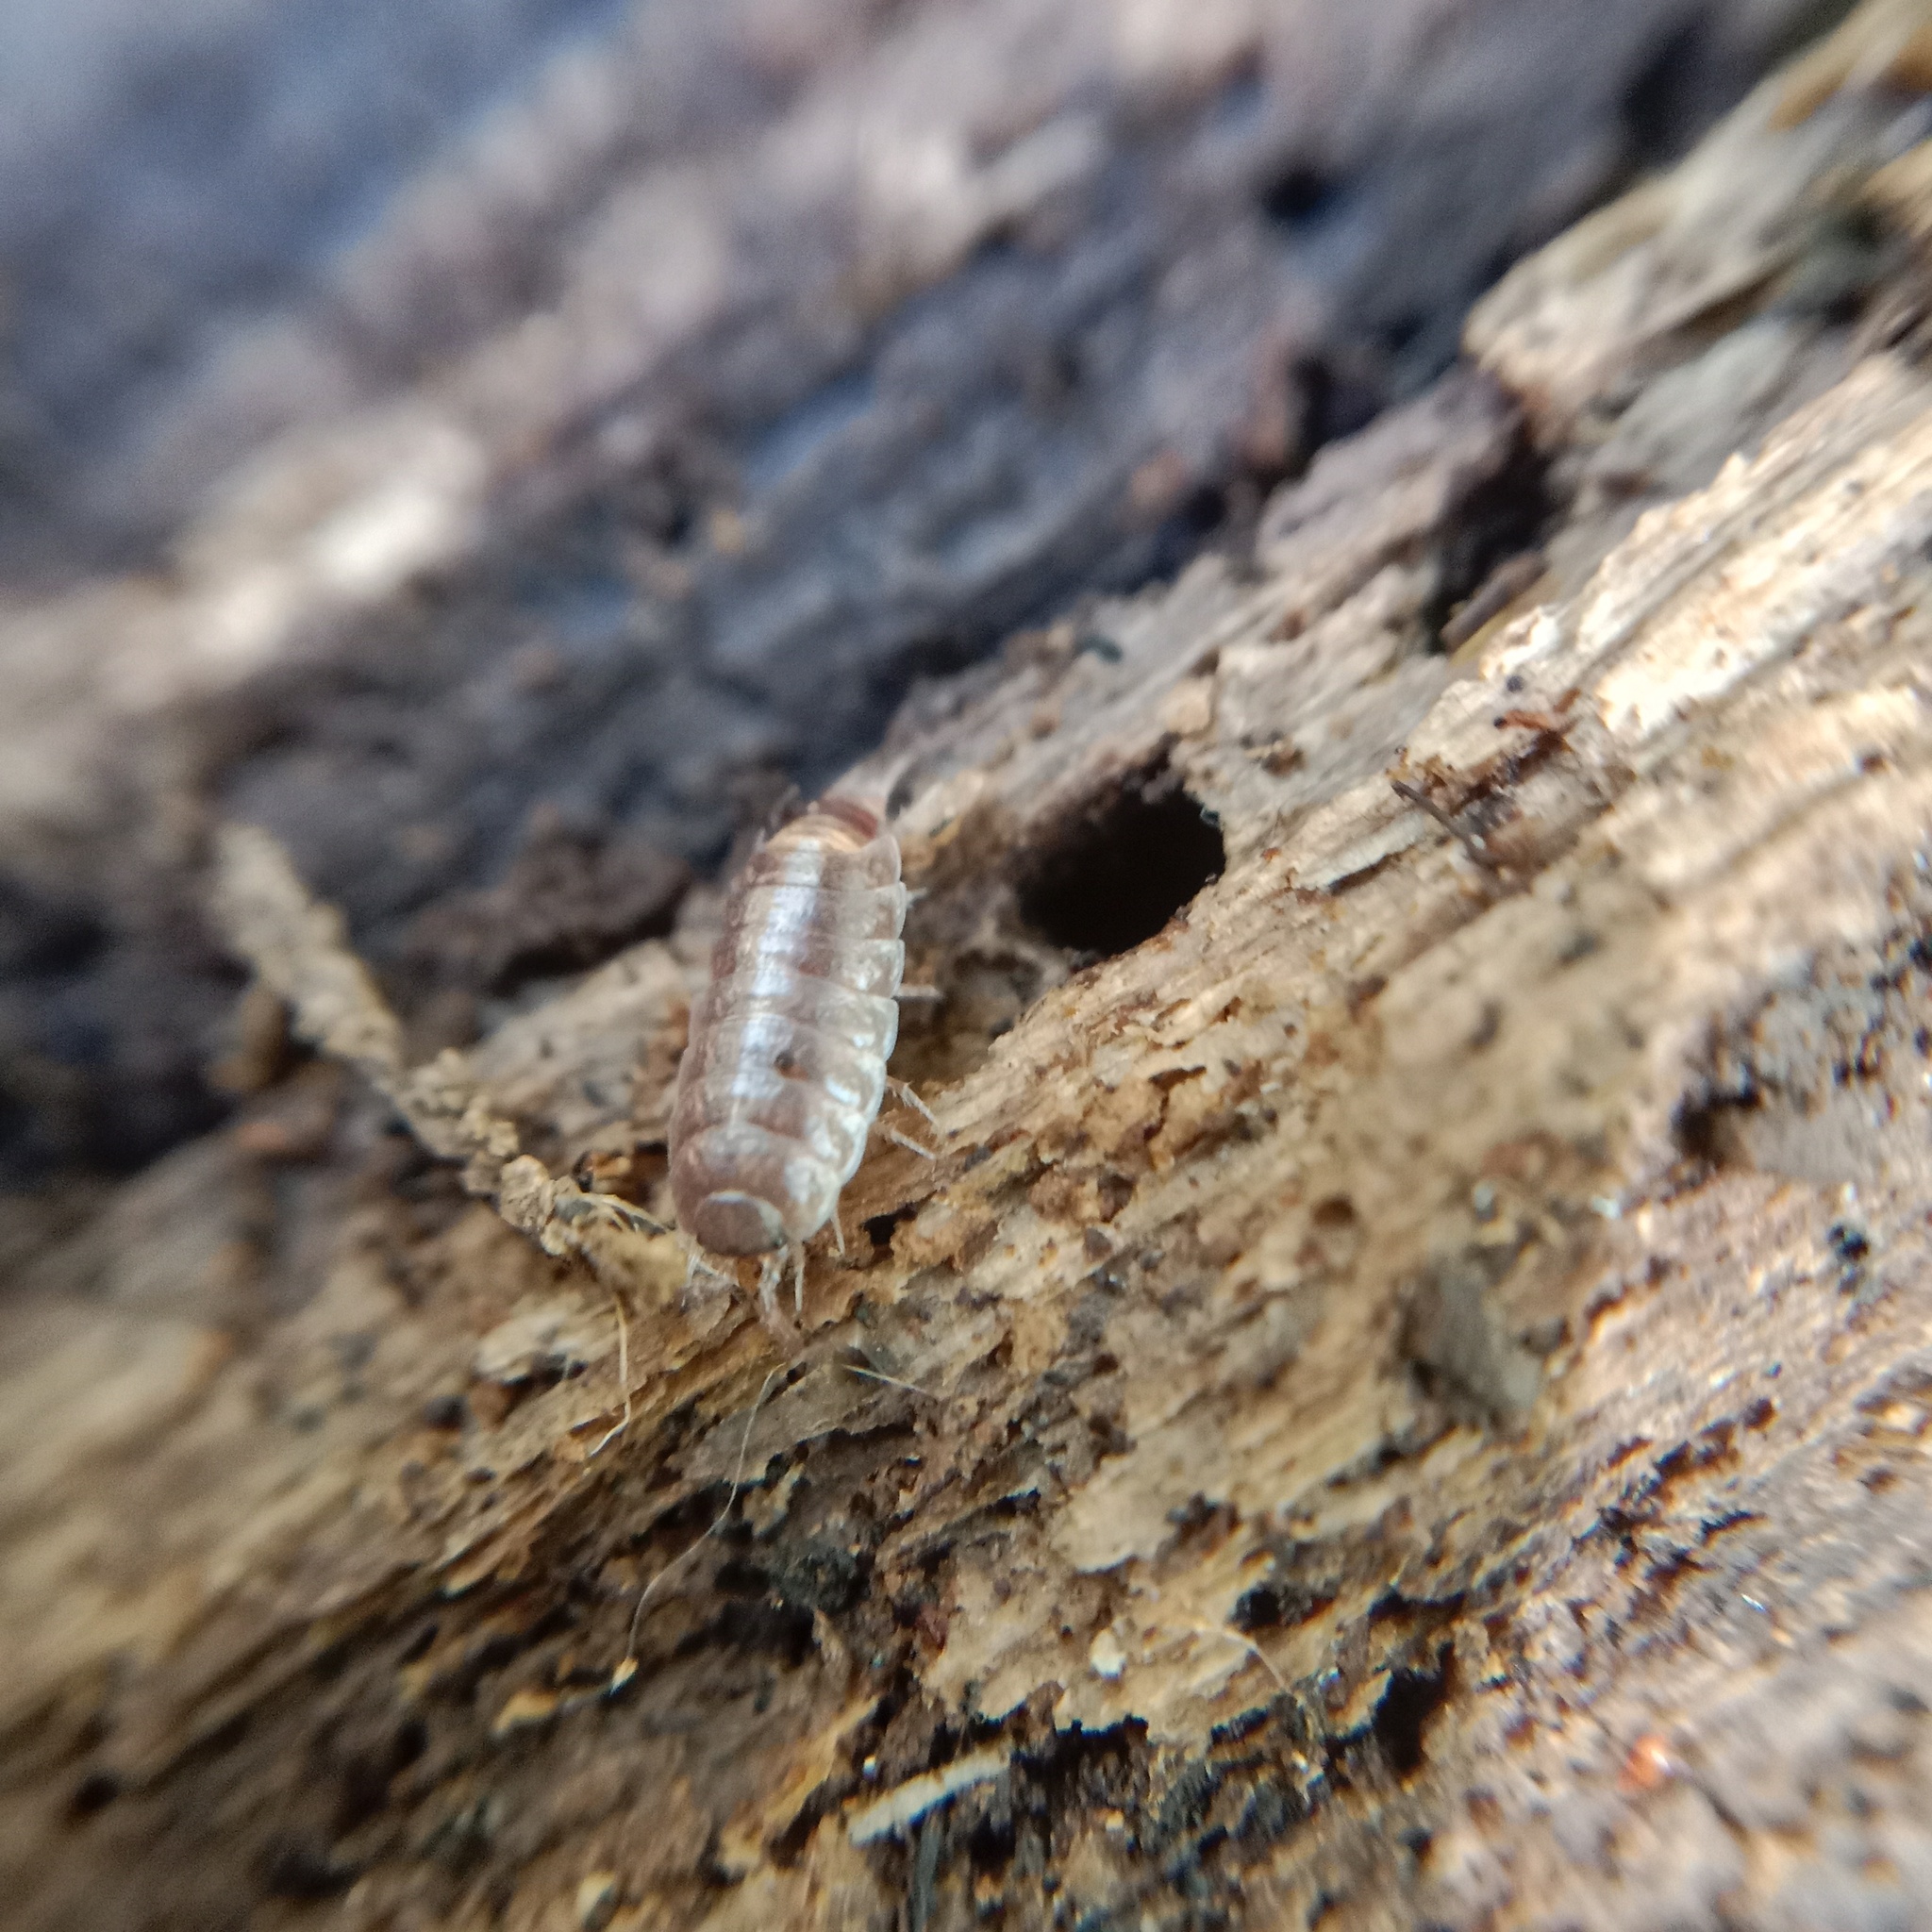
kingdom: Animalia
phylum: Arthropoda
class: Malacostraca
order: Isopoda
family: Trichoniscidae
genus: Hyloniscus
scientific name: Hyloniscus riparius
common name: Isopod
